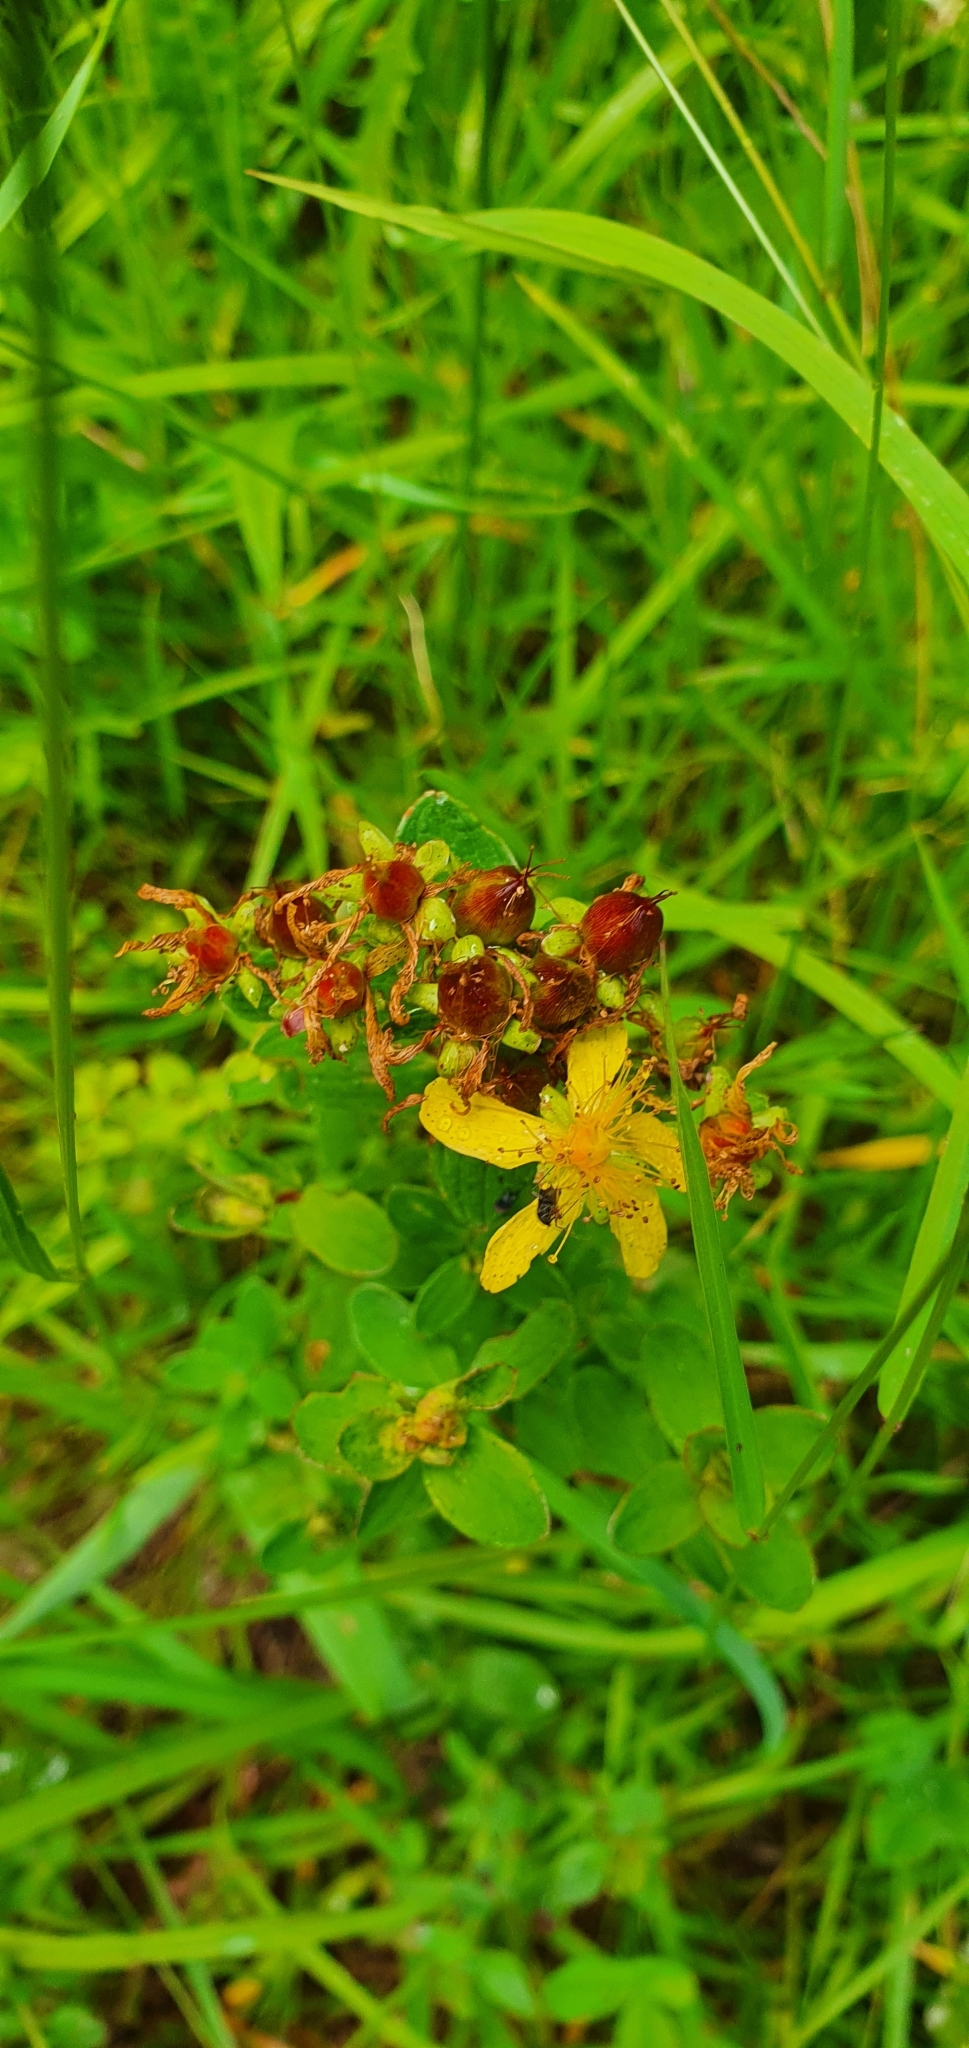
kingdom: Plantae
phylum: Tracheophyta
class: Magnoliopsida
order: Malpighiales
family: Hypericaceae
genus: Hypericum
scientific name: Hypericum maculatum
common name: Imperforate st. john's-wort
